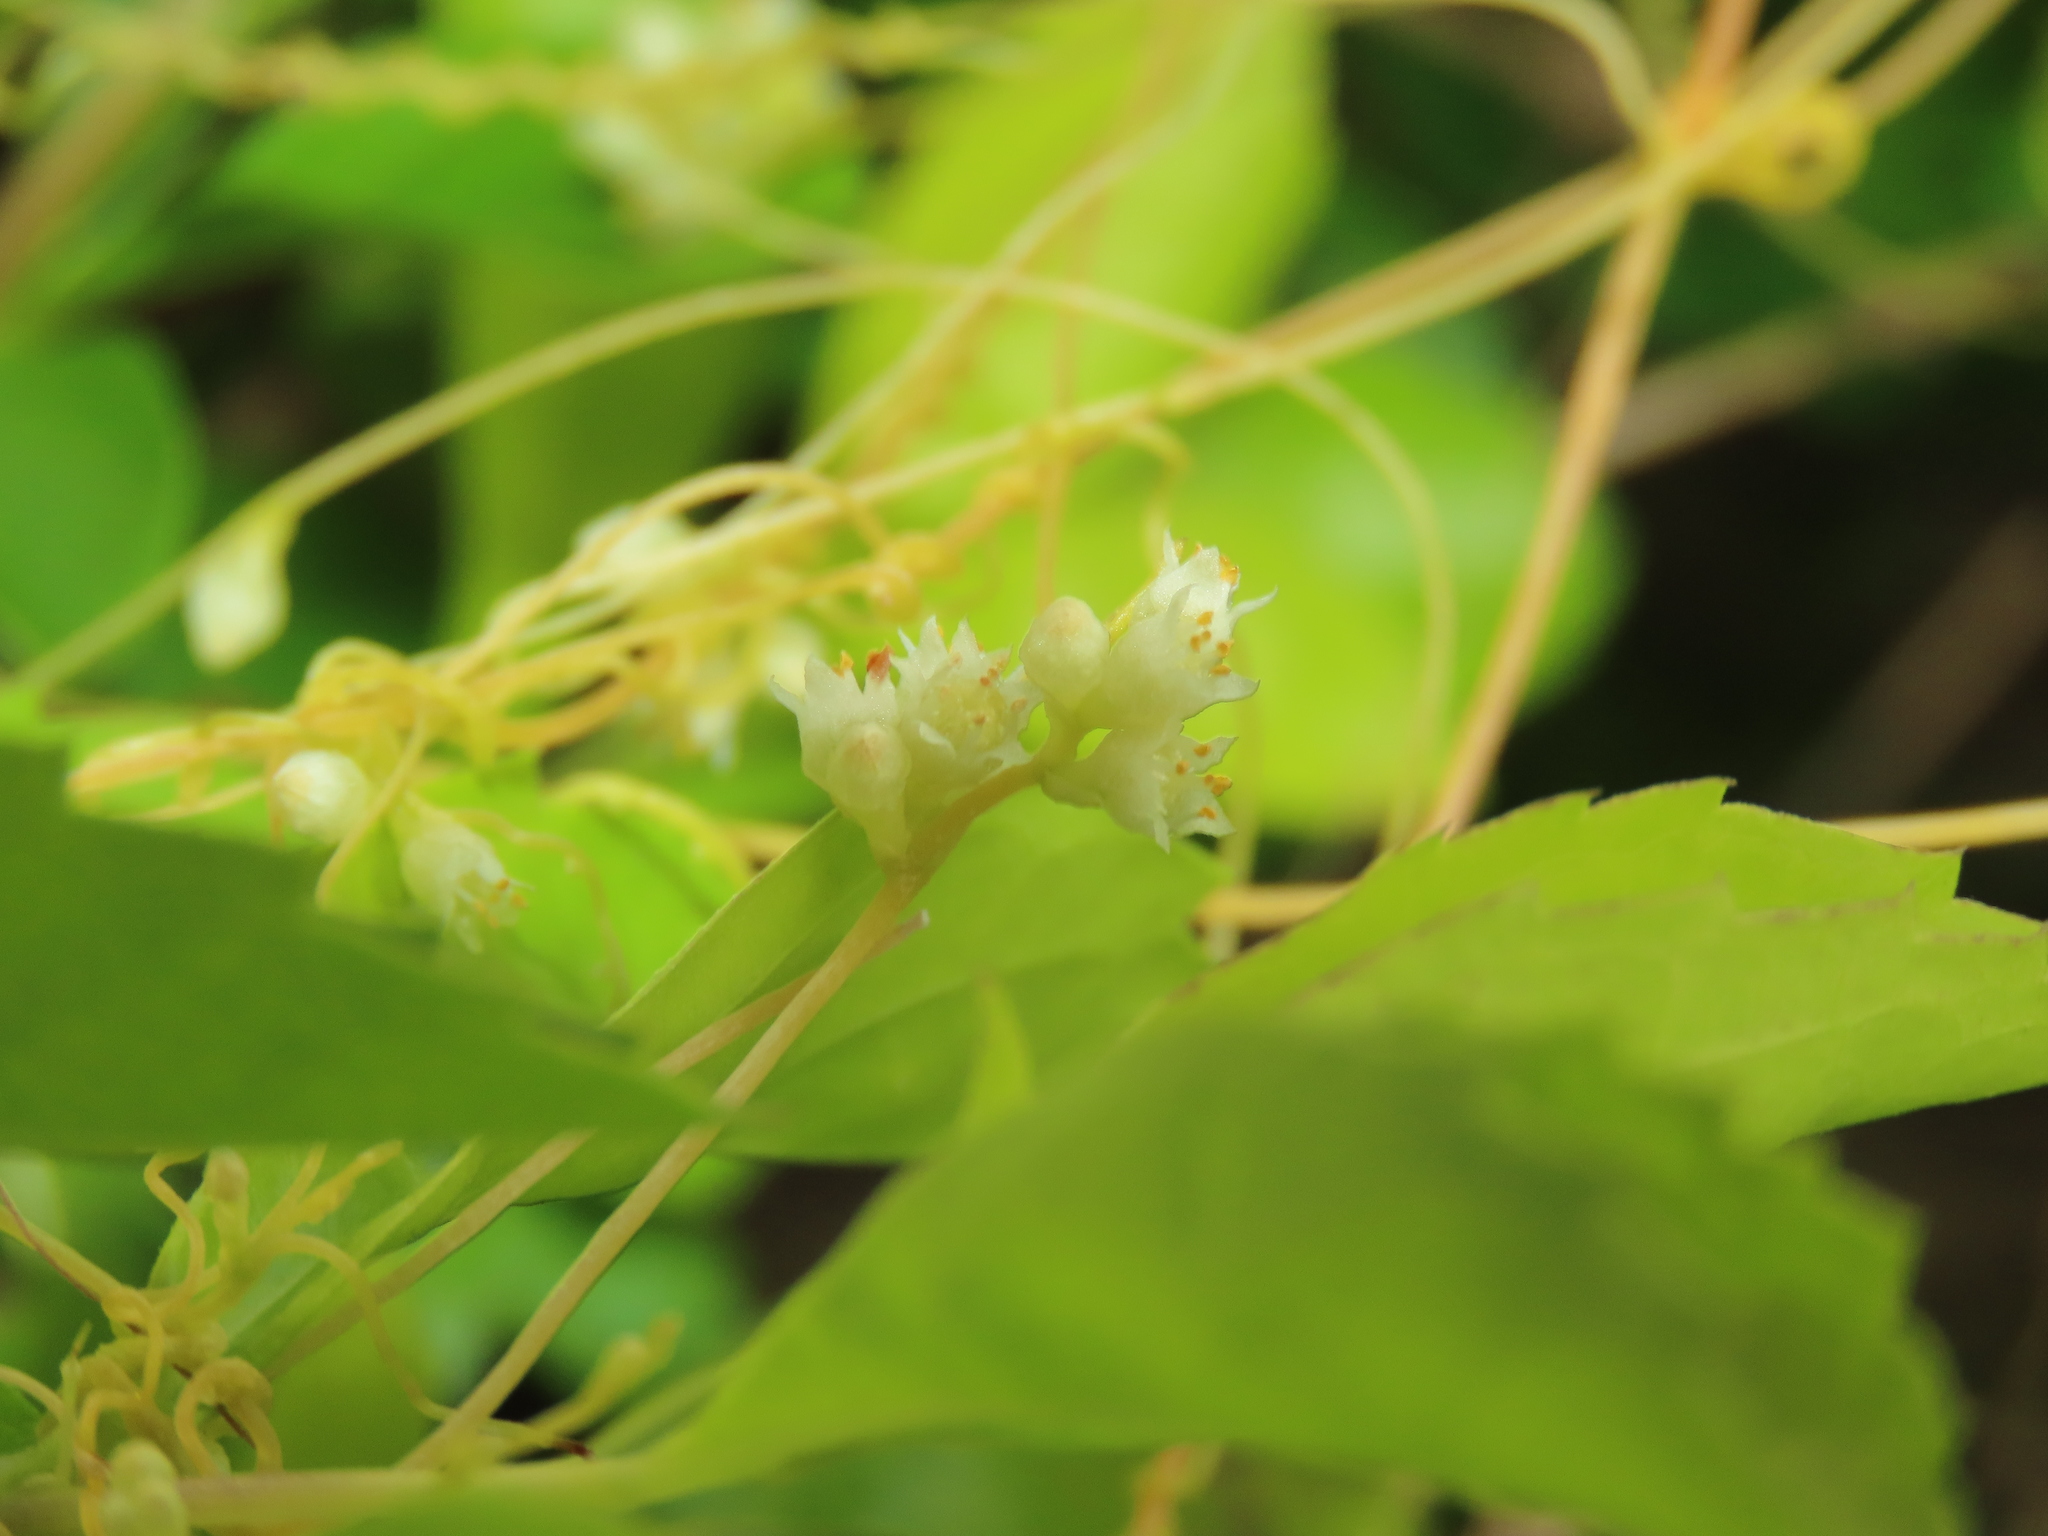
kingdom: Plantae
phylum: Tracheophyta
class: Magnoliopsida
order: Solanales
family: Convolvulaceae
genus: Cuscuta
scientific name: Cuscuta campestris
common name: Yellow dodder
